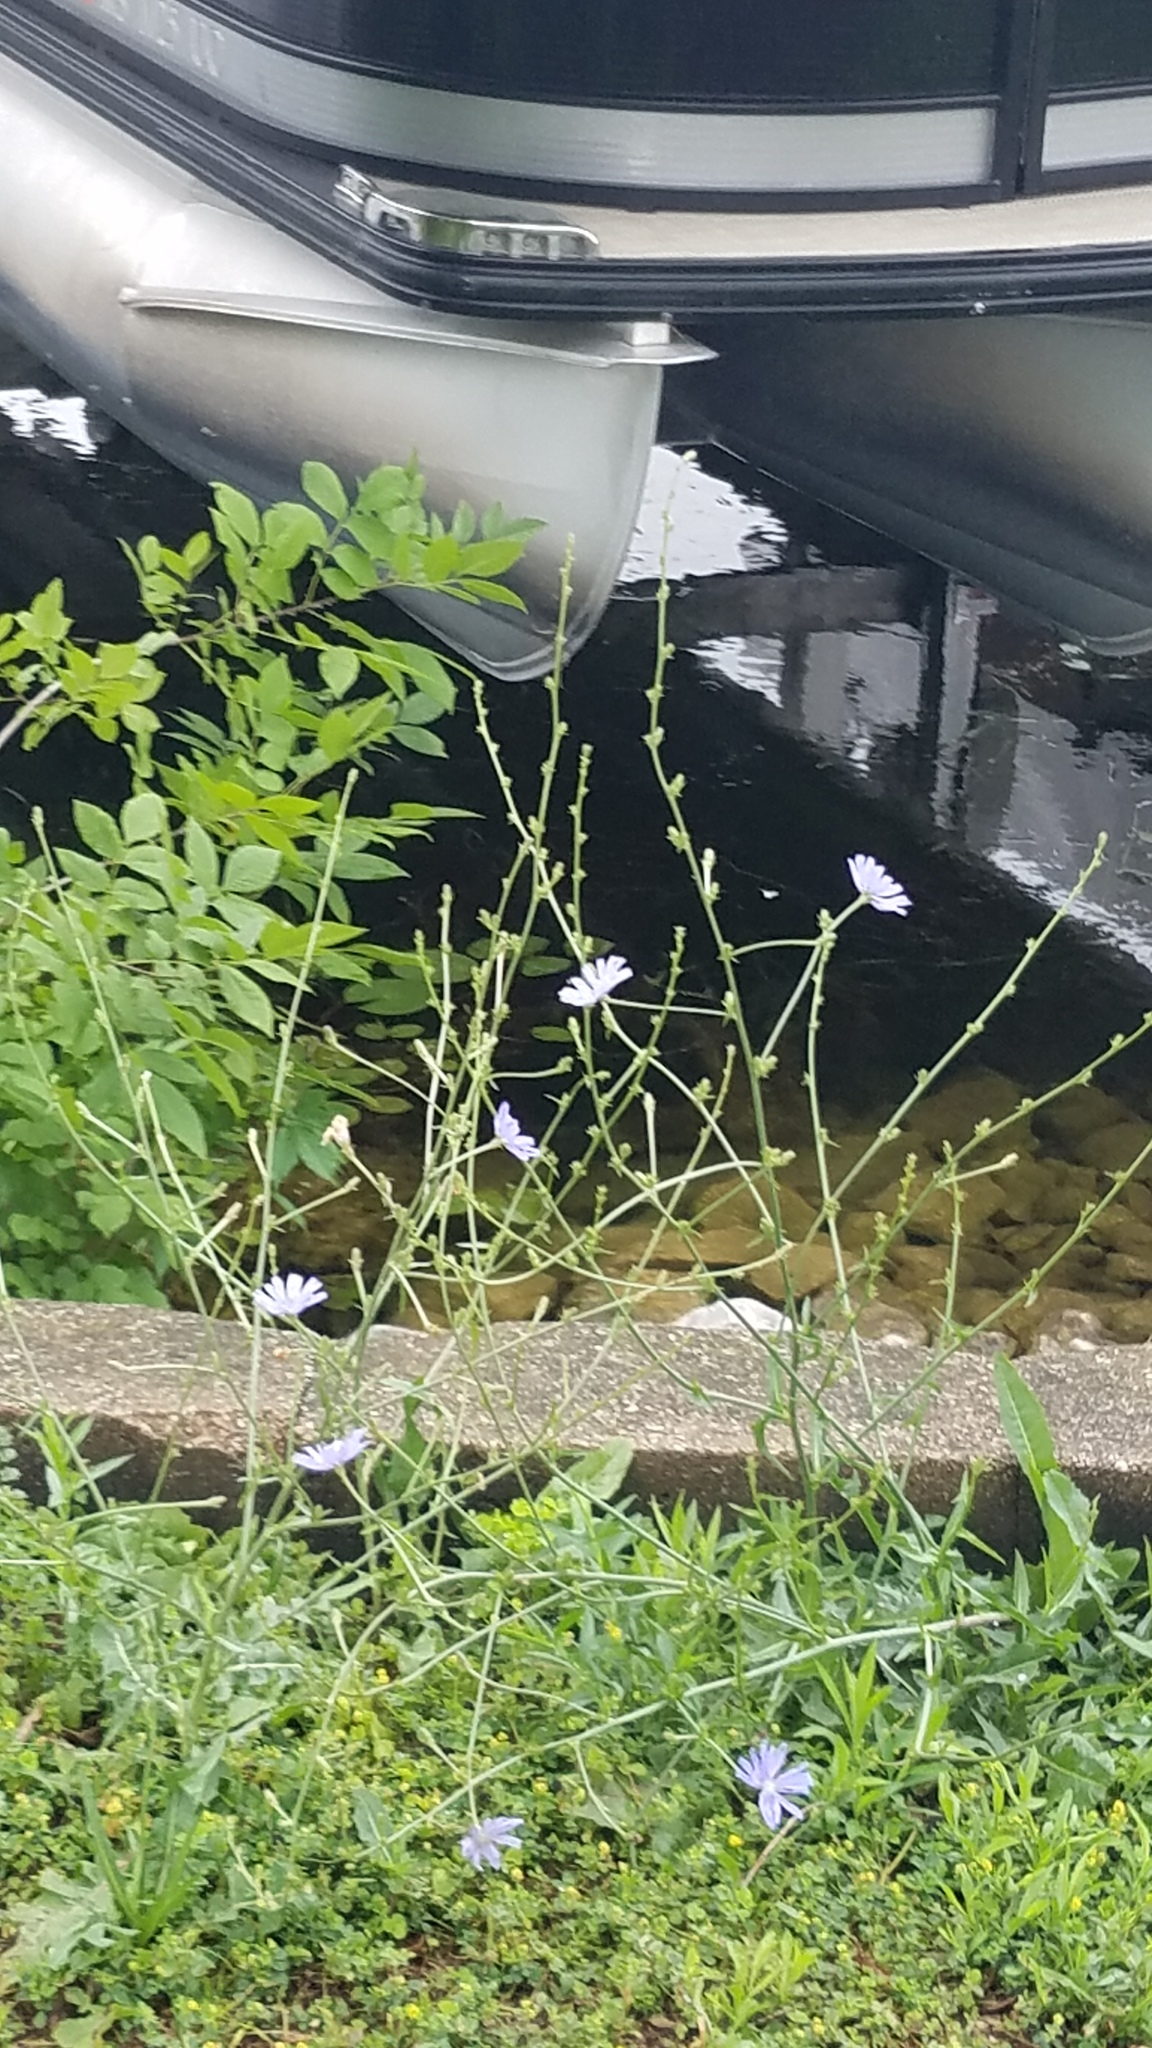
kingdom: Plantae
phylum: Tracheophyta
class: Magnoliopsida
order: Asterales
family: Asteraceae
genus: Cichorium
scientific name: Cichorium intybus
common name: Chicory
